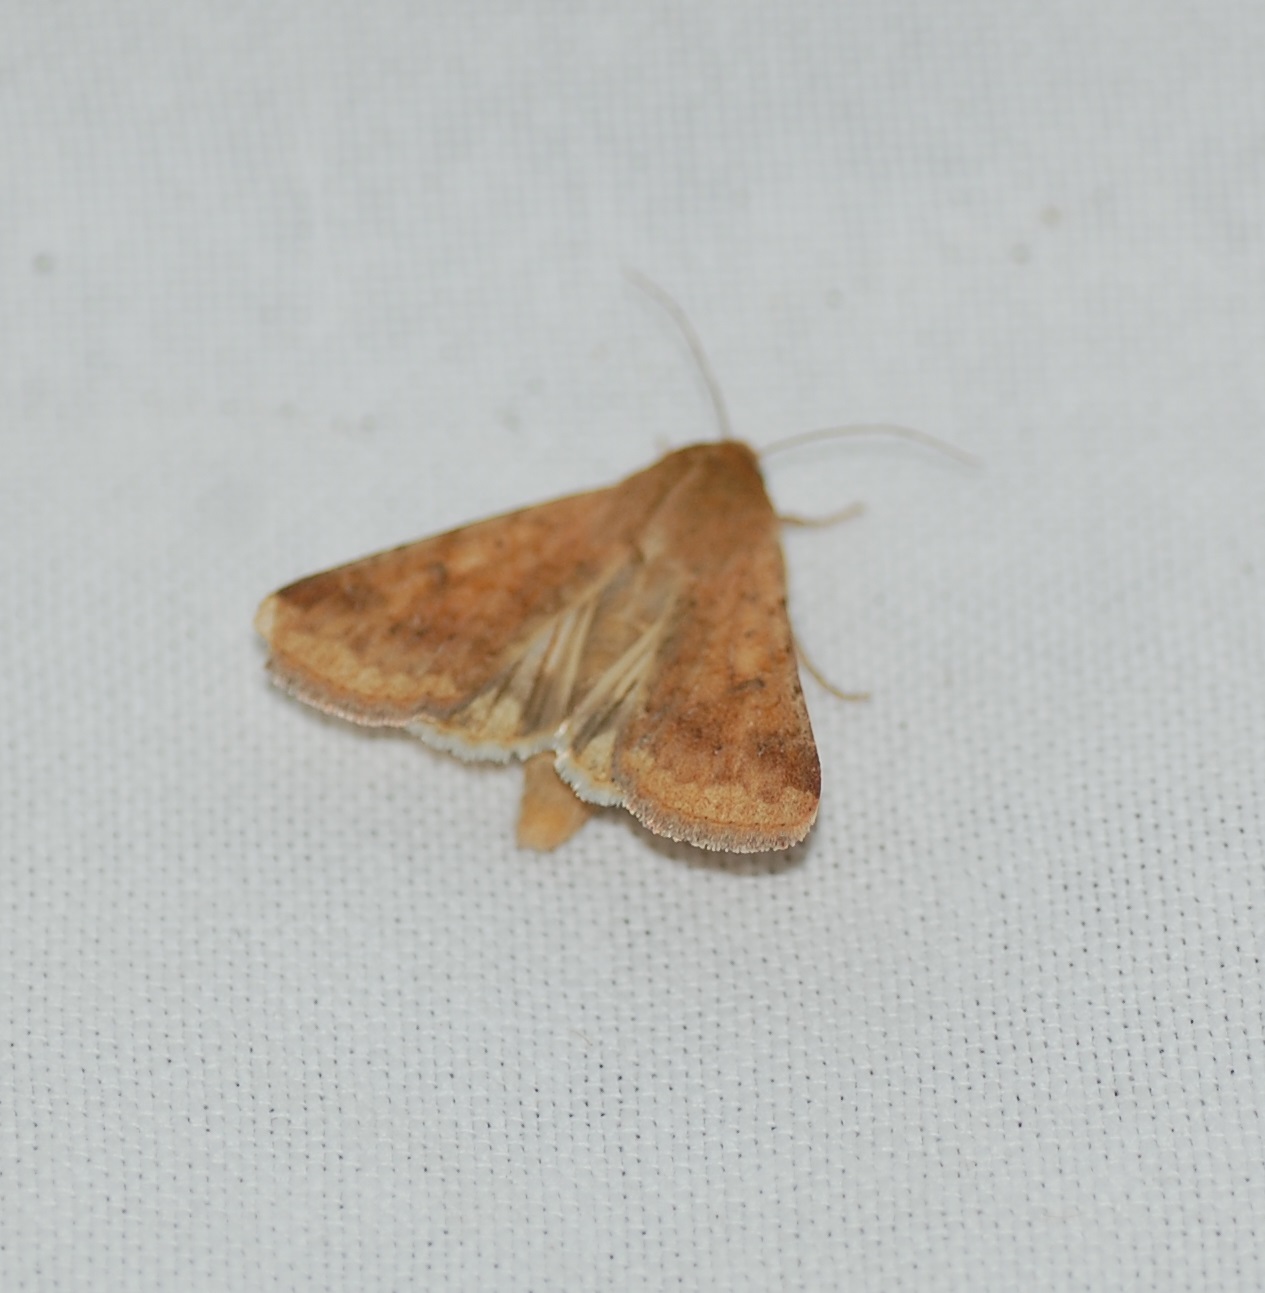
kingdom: Animalia
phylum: Arthropoda
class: Insecta
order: Lepidoptera
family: Noctuidae
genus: Helicoverpa
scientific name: Helicoverpa zea
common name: Bollworm
